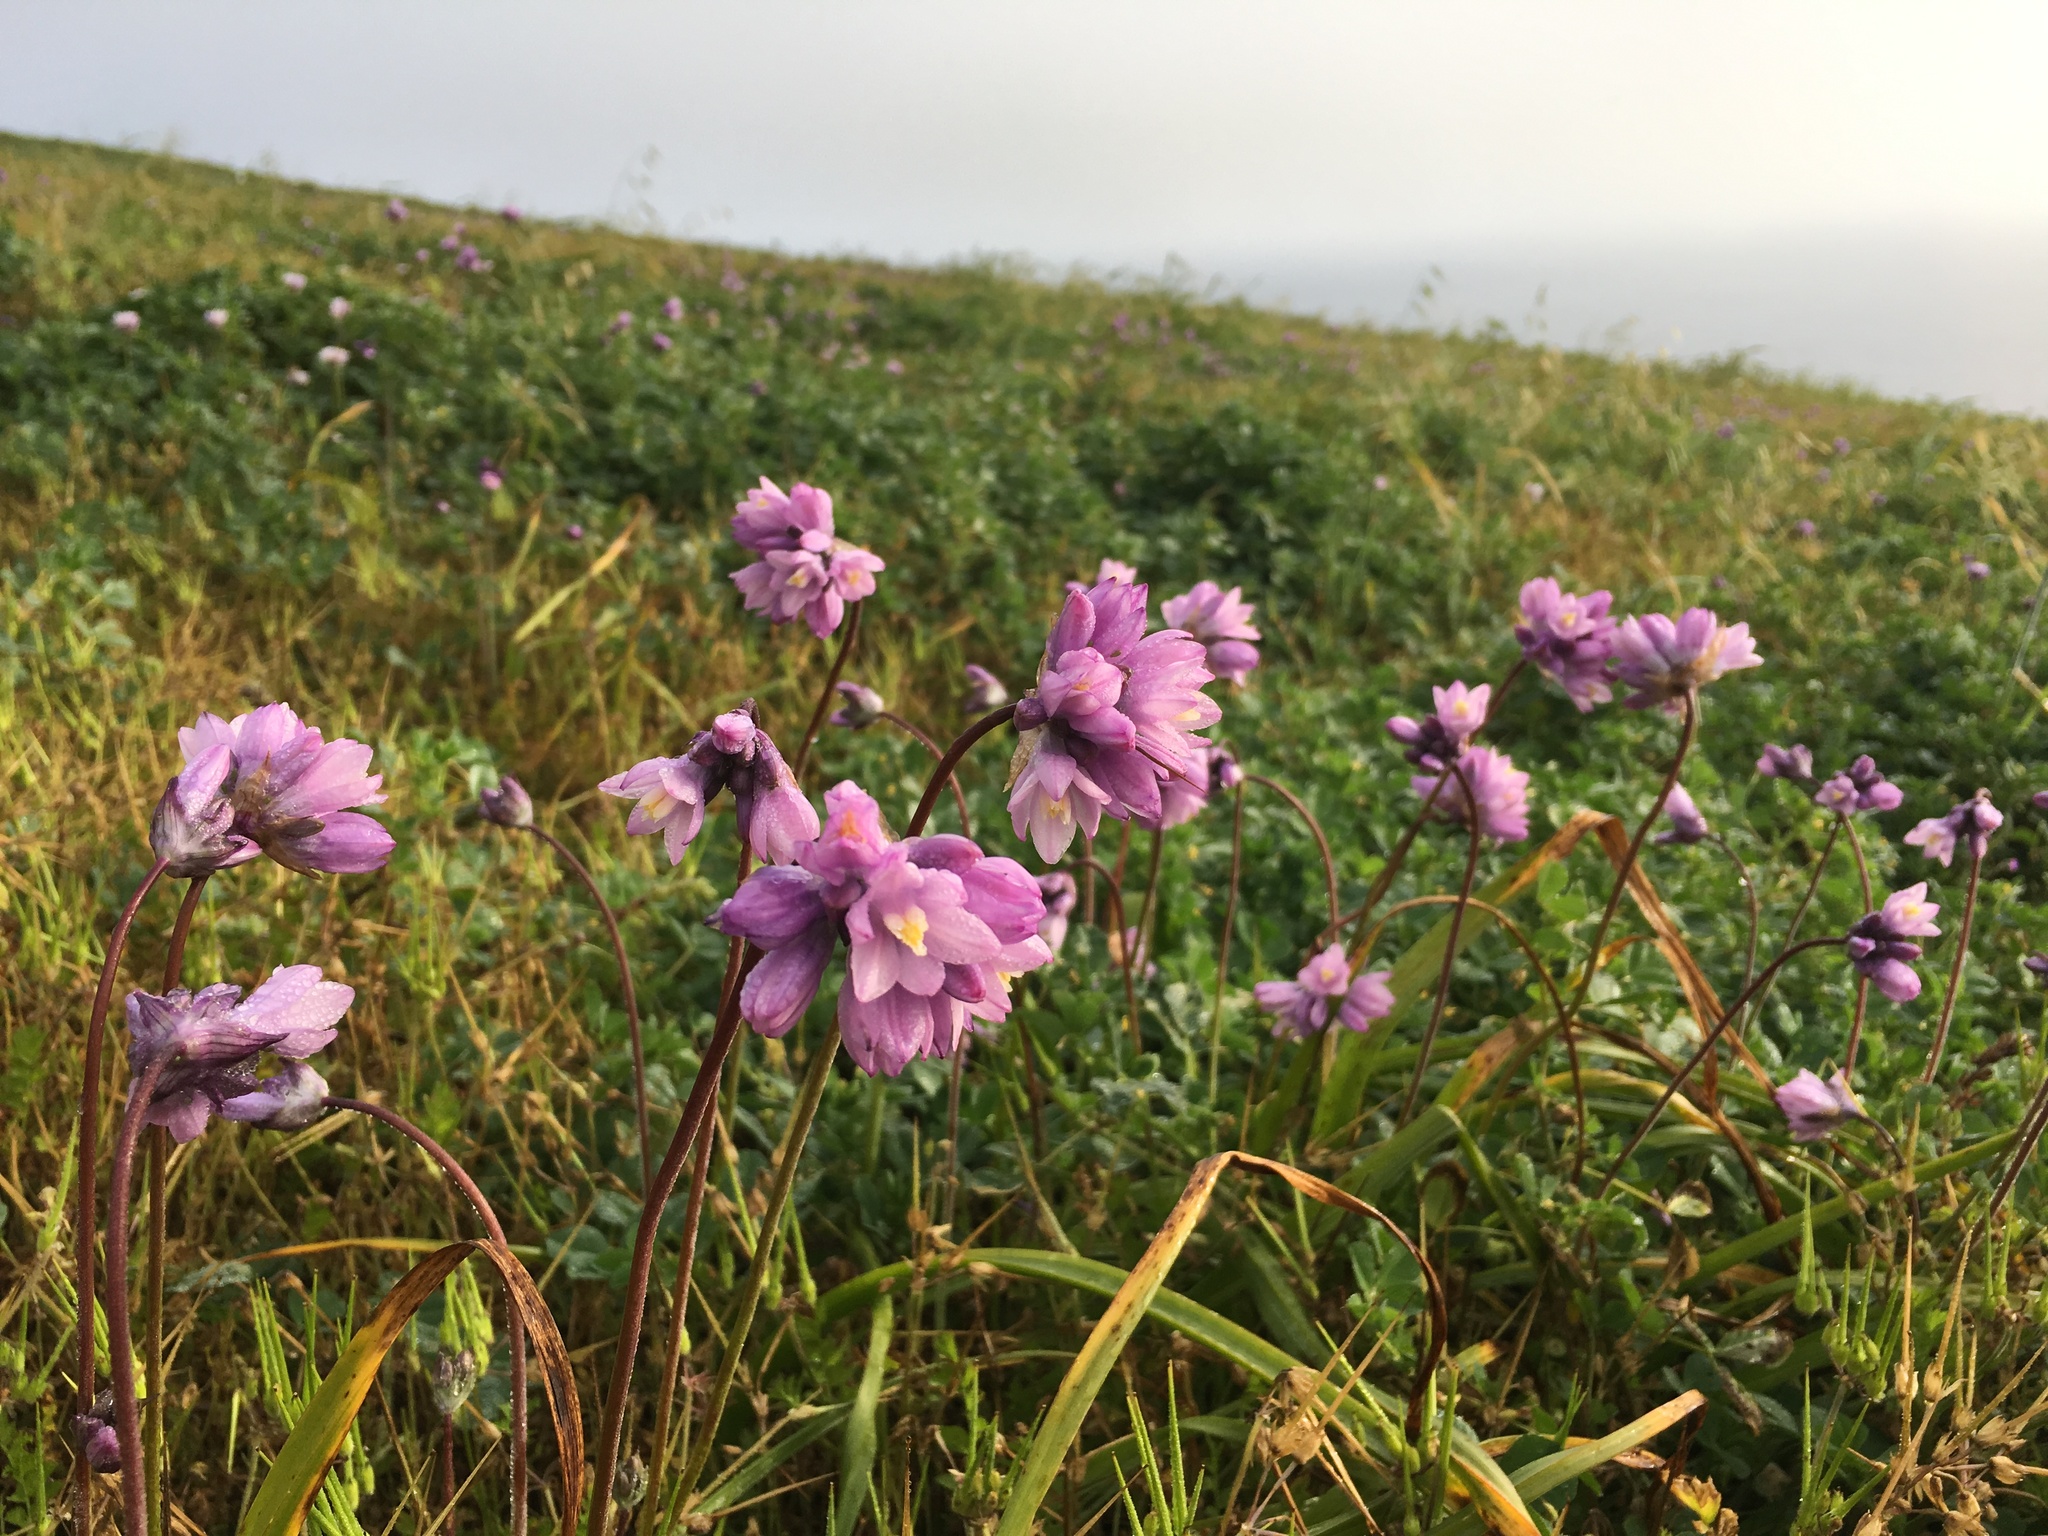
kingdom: Plantae
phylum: Tracheophyta
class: Liliopsida
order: Asparagales
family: Asparagaceae
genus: Dipterostemon
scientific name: Dipterostemon capitatus
